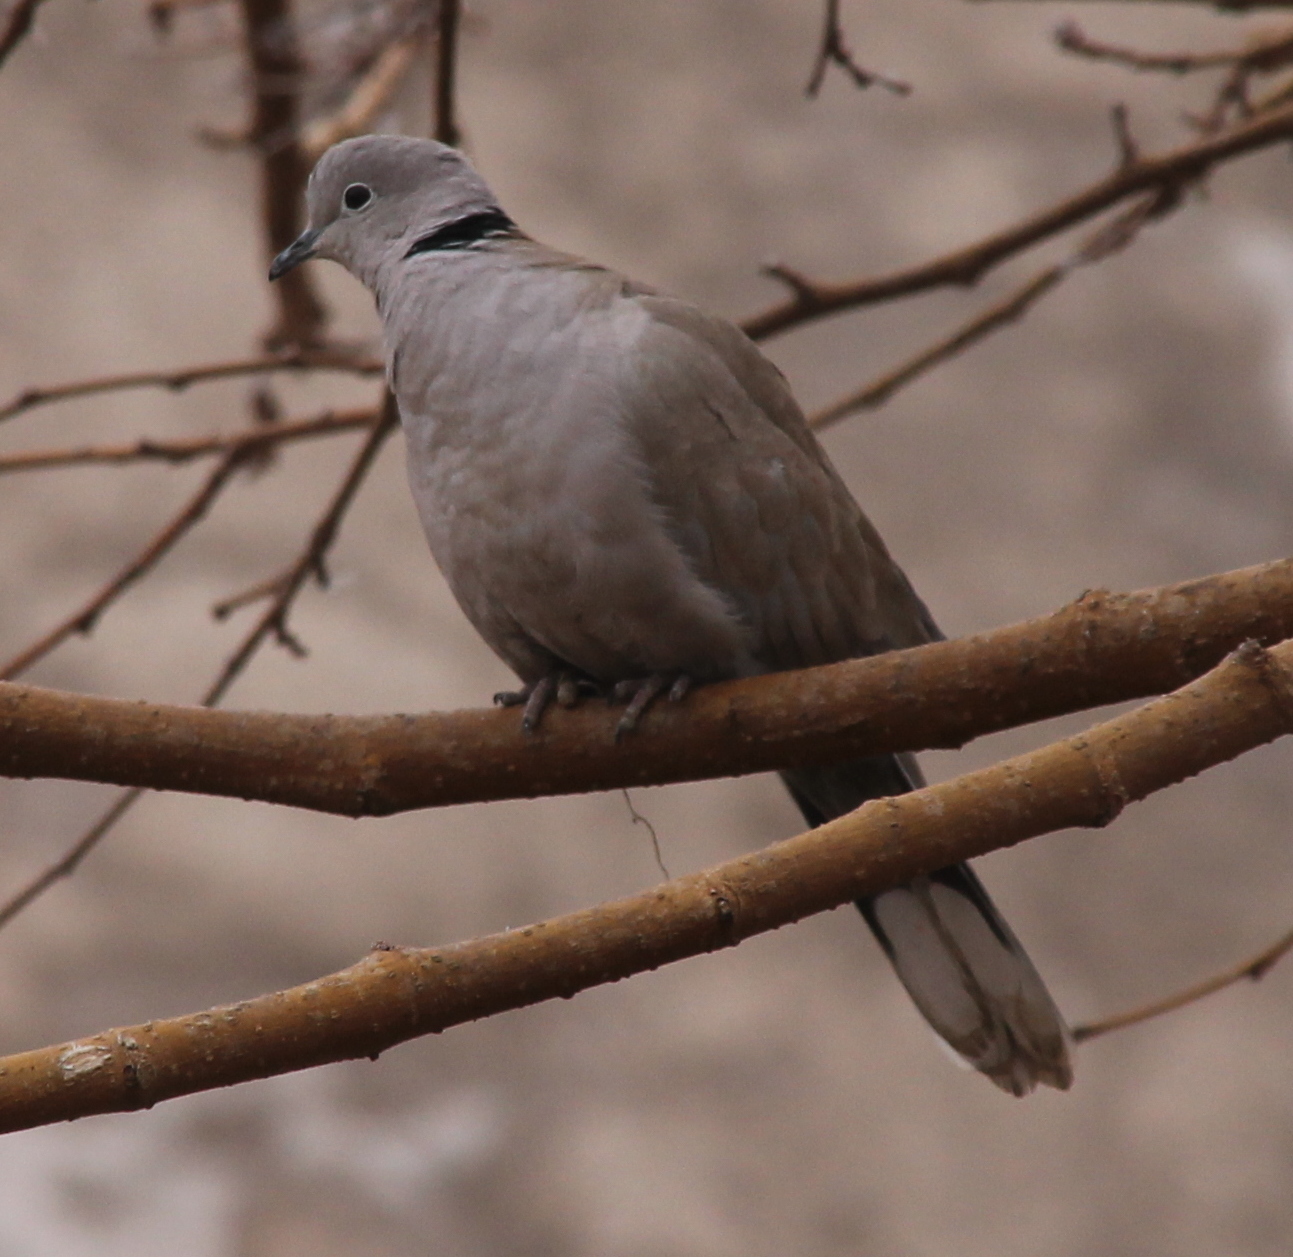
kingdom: Animalia
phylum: Chordata
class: Aves
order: Columbiformes
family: Columbidae
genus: Streptopelia
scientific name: Streptopelia decaocto
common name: Eurasian collared dove
